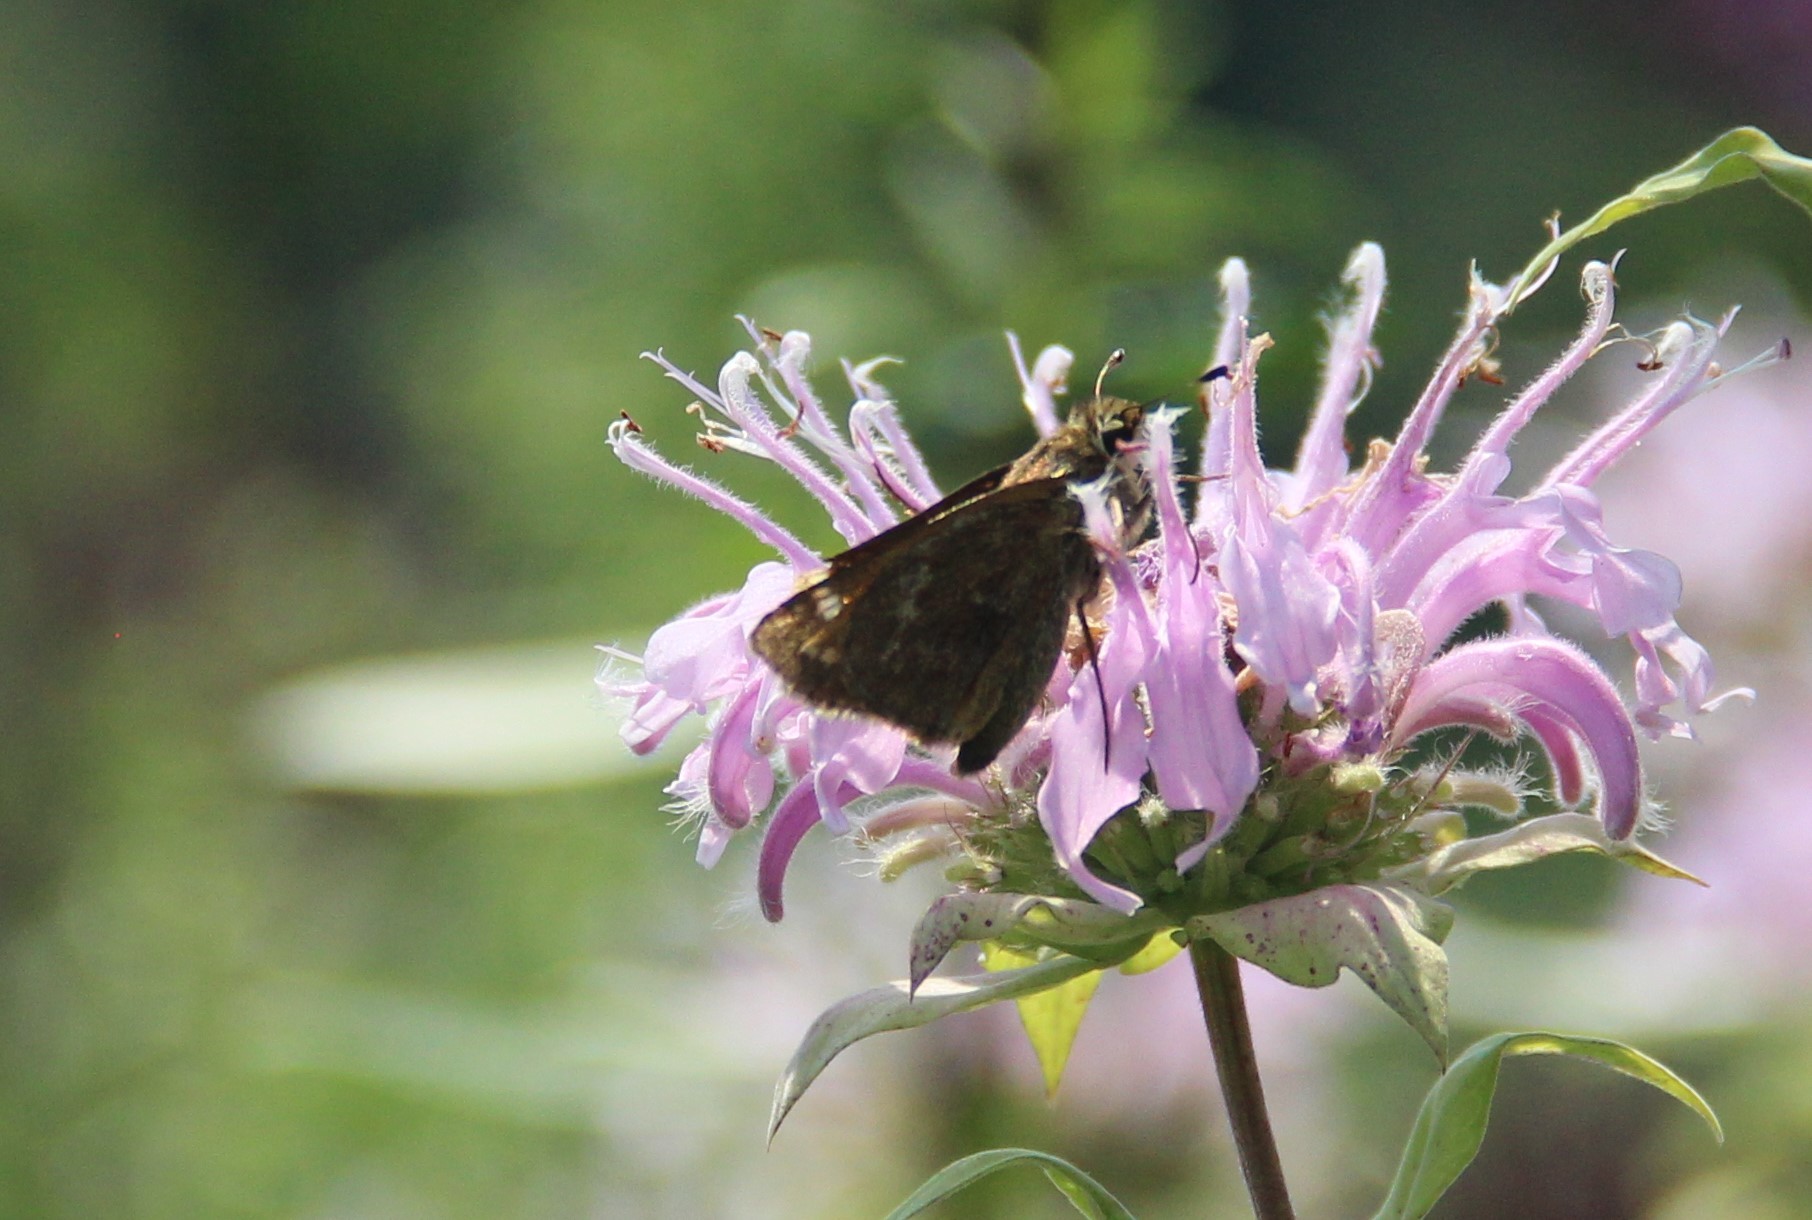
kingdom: Animalia
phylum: Arthropoda
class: Insecta
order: Lepidoptera
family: Hesperiidae
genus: Atalopedes
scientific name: Atalopedes
